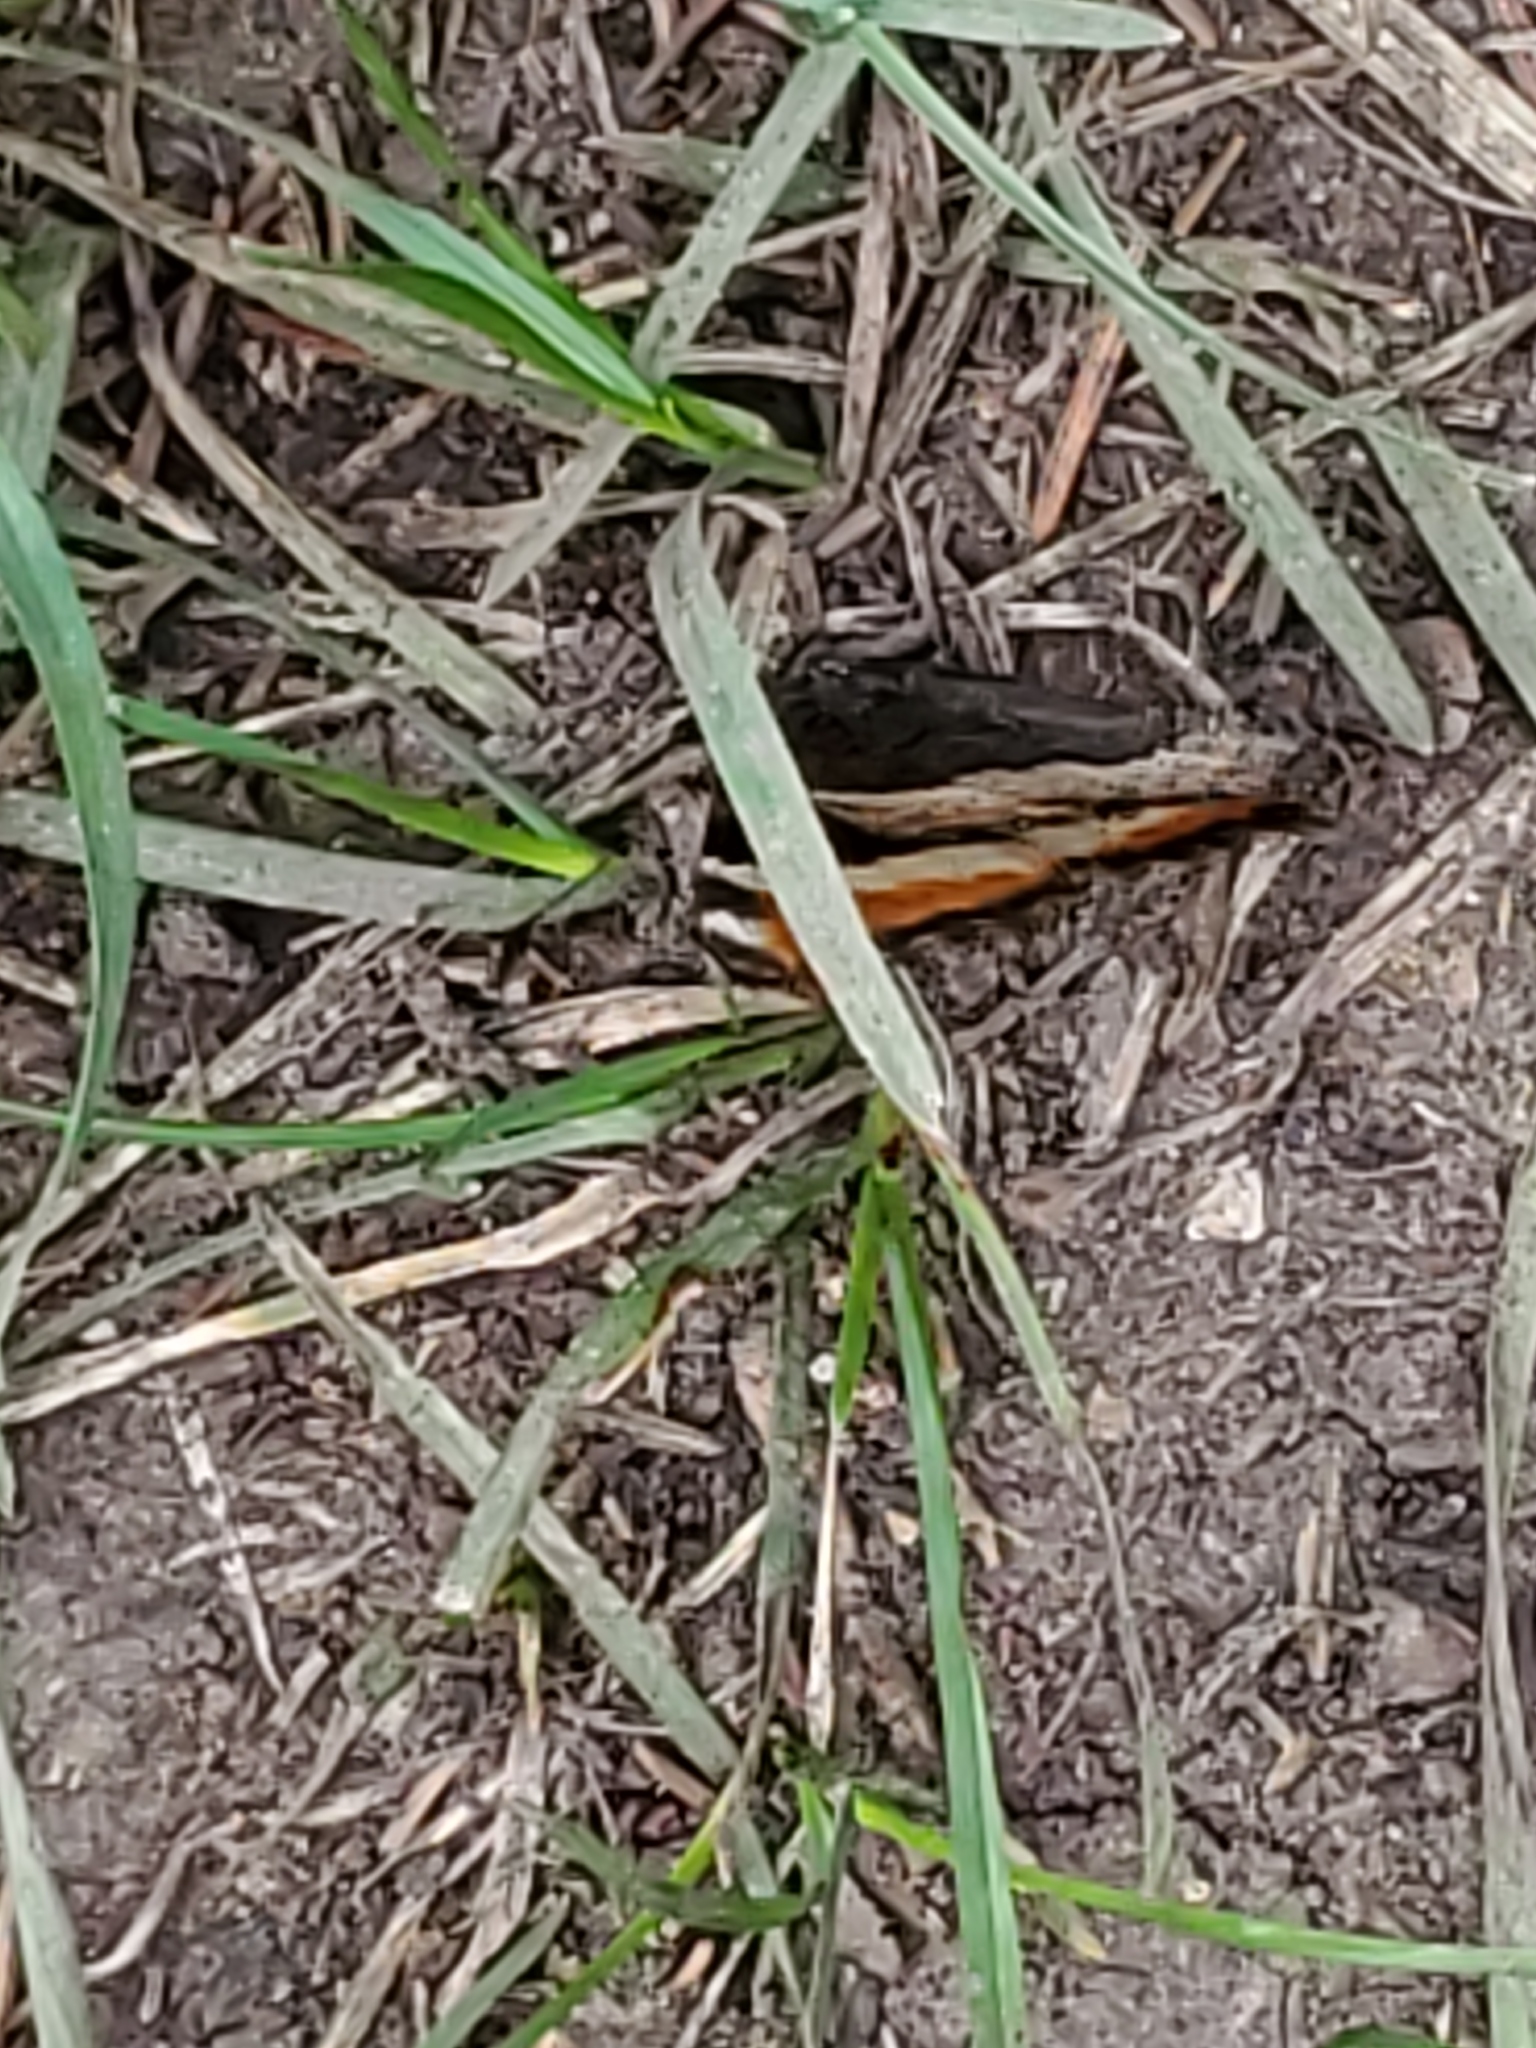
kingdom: Animalia
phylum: Arthropoda
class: Insecta
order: Lepidoptera
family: Nymphalidae
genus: Aglais
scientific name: Aglais milberti
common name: Milbert's tortoiseshell
